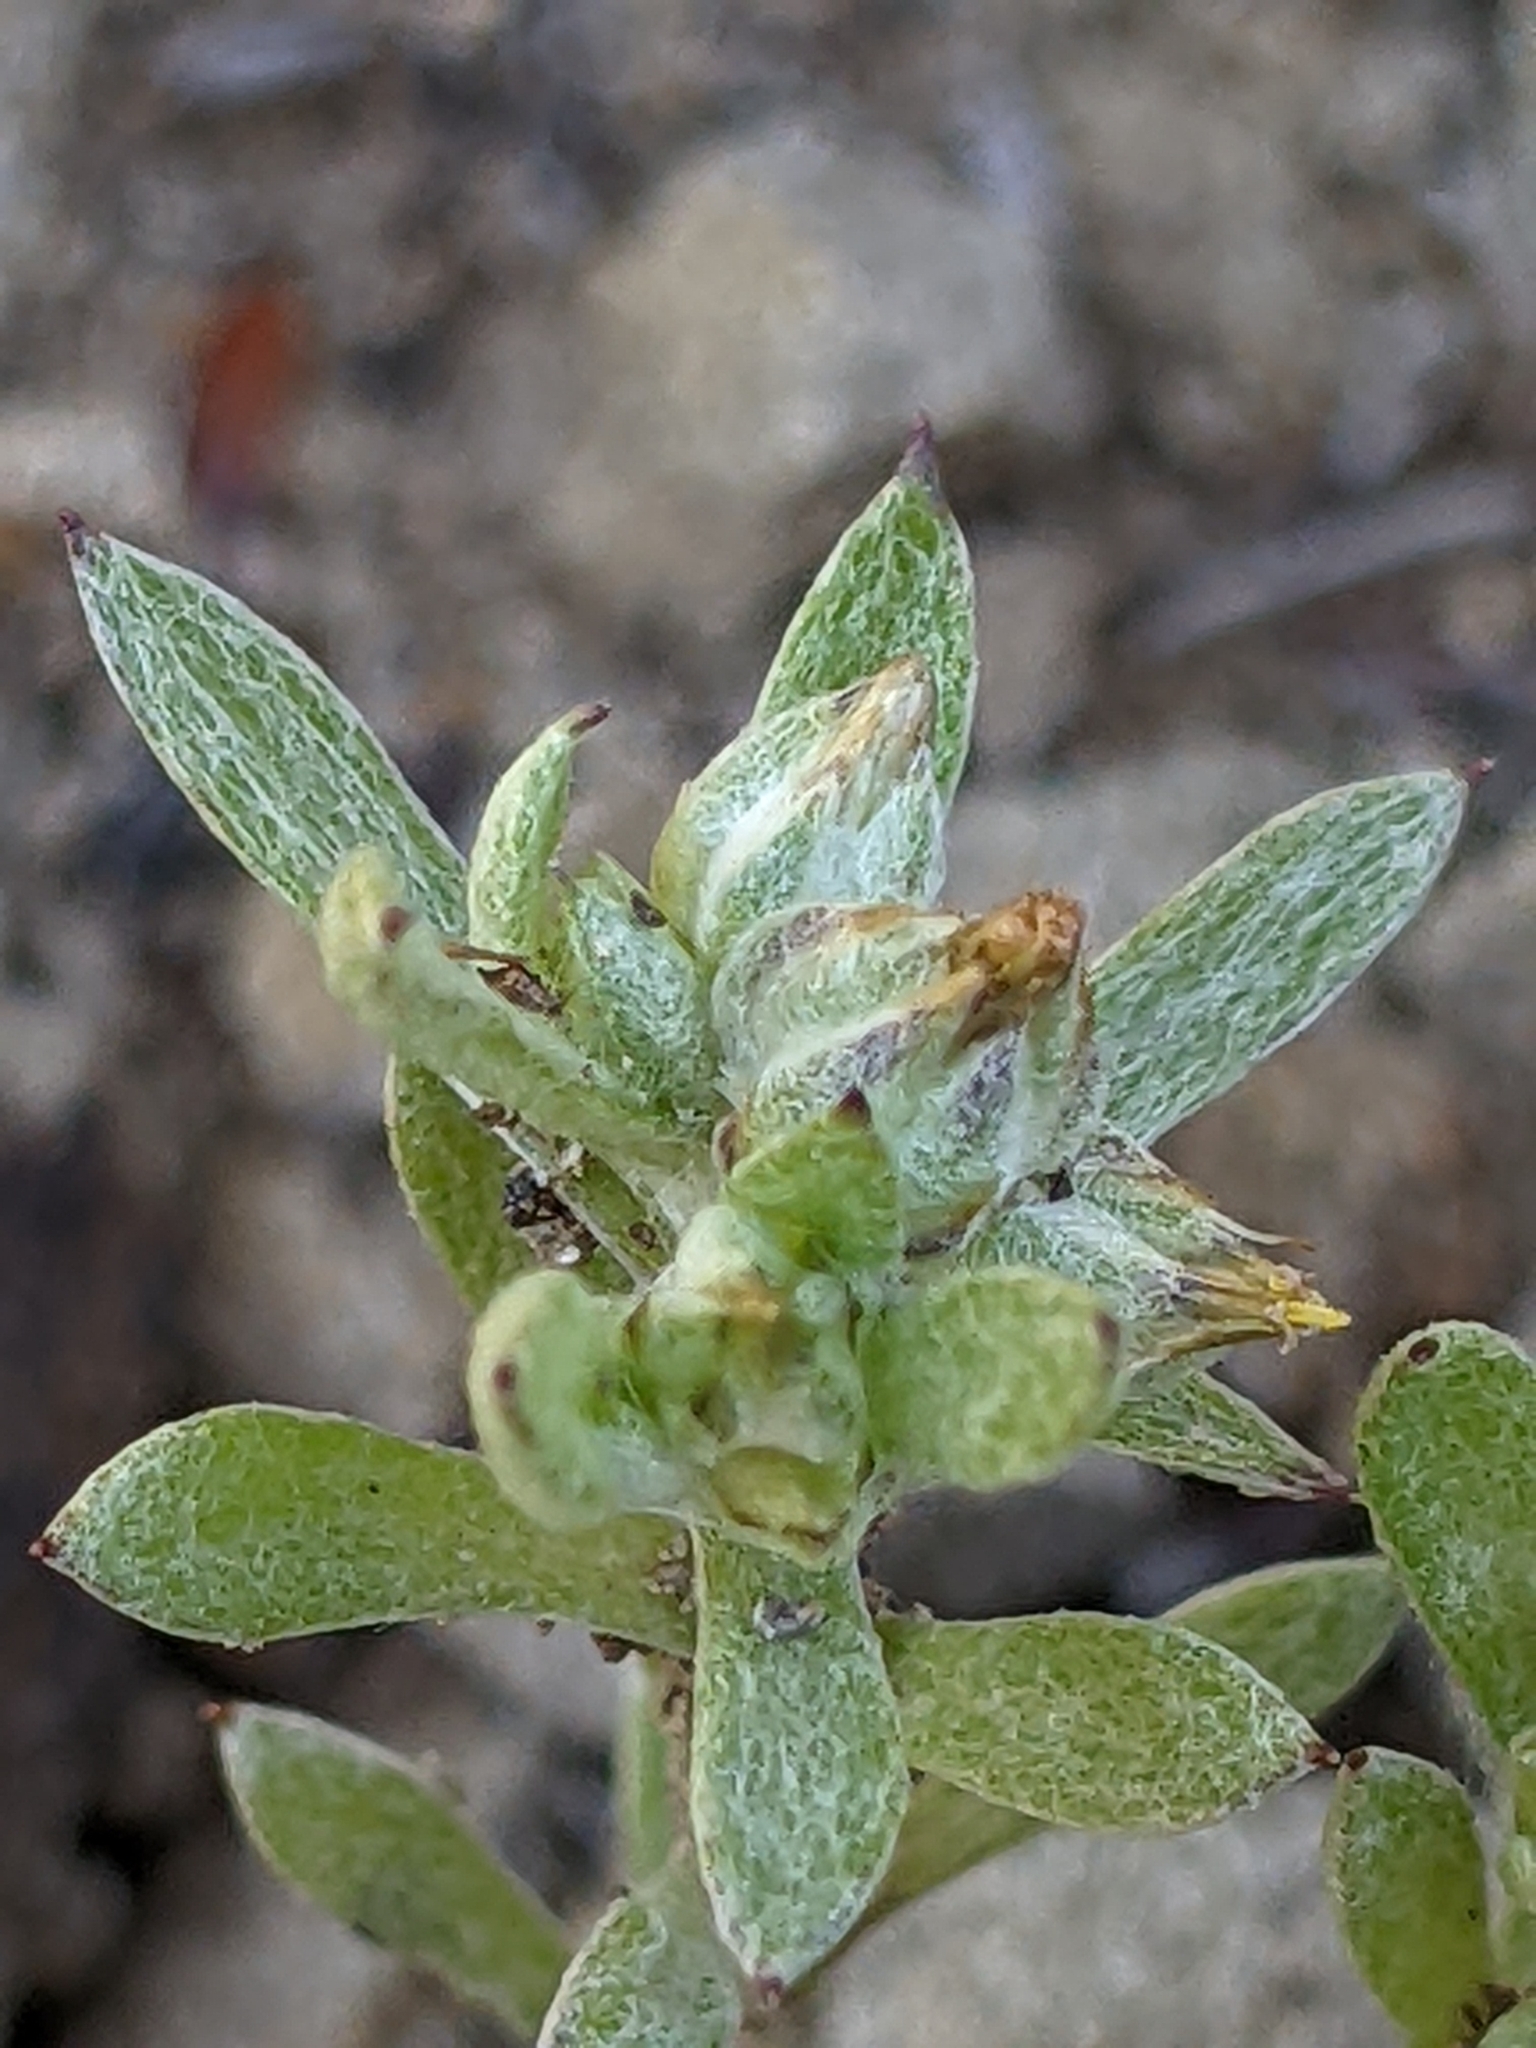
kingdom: Plantae
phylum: Tracheophyta
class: Magnoliopsida
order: Asterales
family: Asteraceae
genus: Logfia
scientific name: Logfia californica
